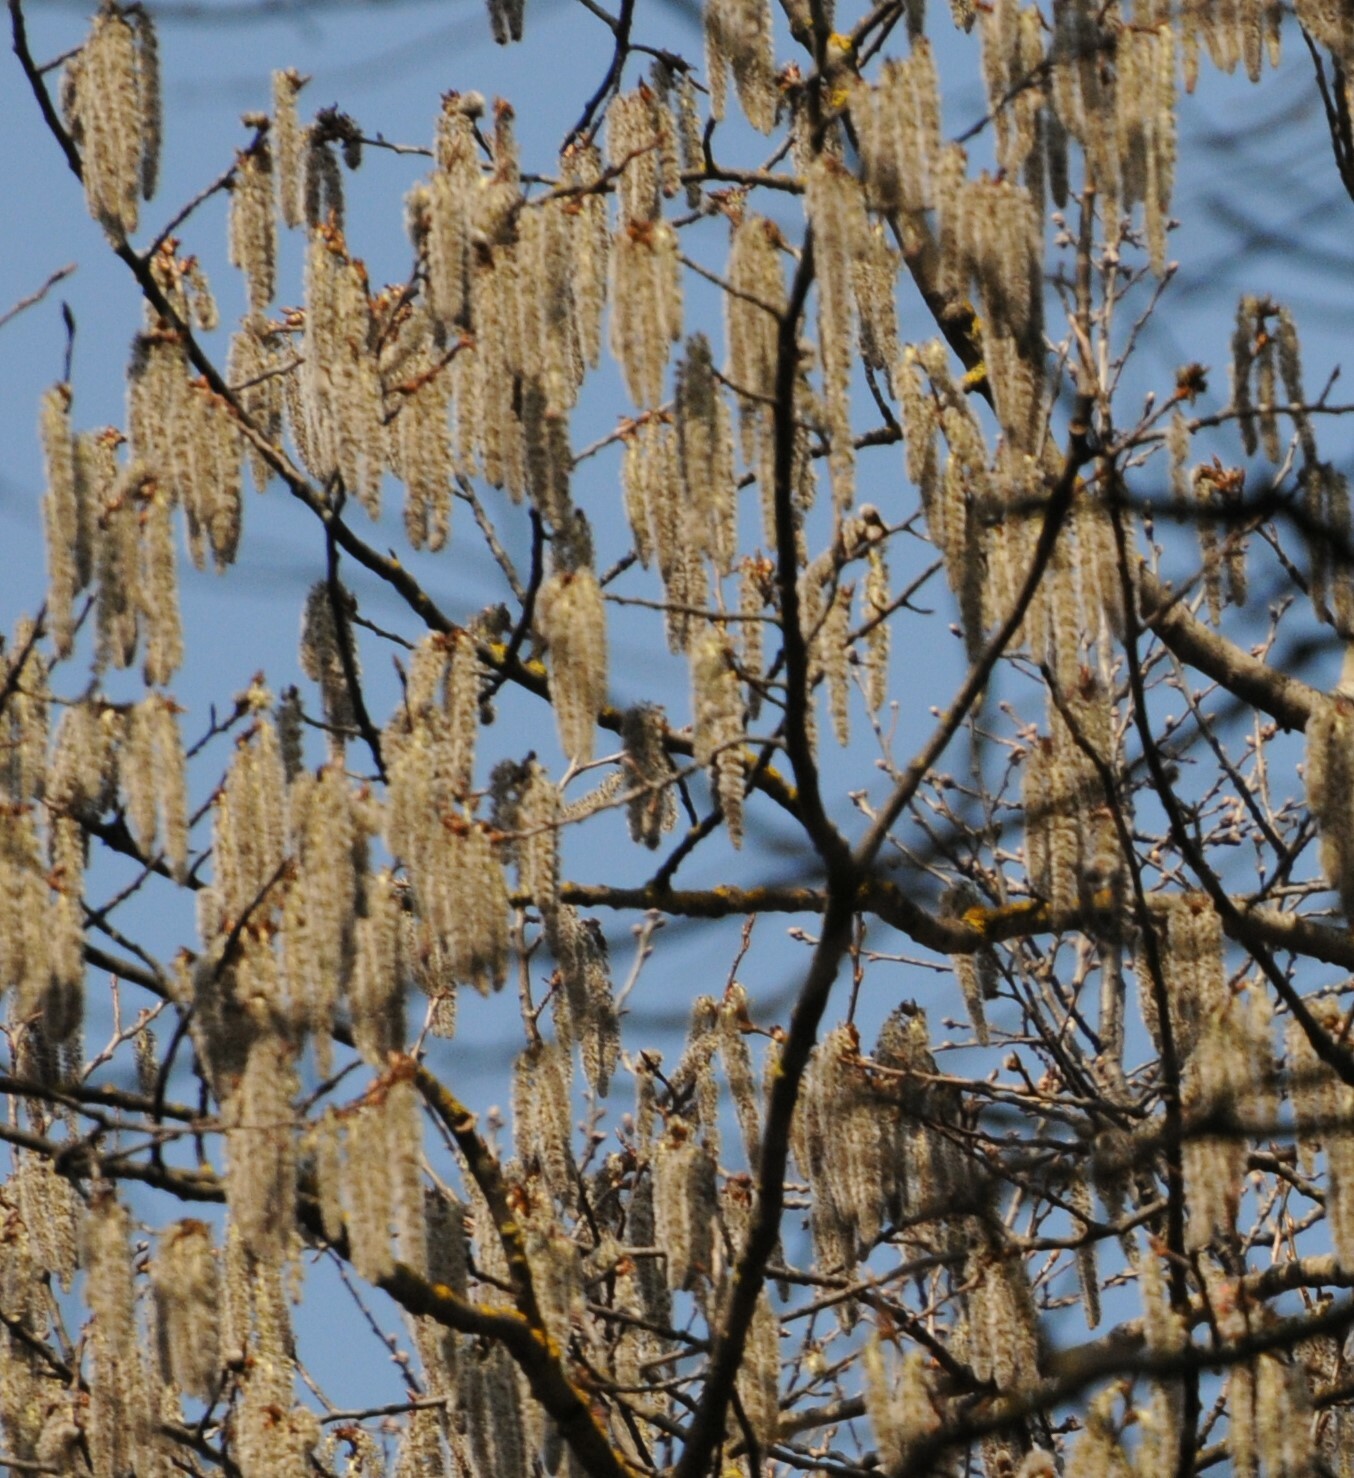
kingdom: Plantae
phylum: Tracheophyta
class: Magnoliopsida
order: Malpighiales
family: Salicaceae
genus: Populus
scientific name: Populus tremula
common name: European aspen
